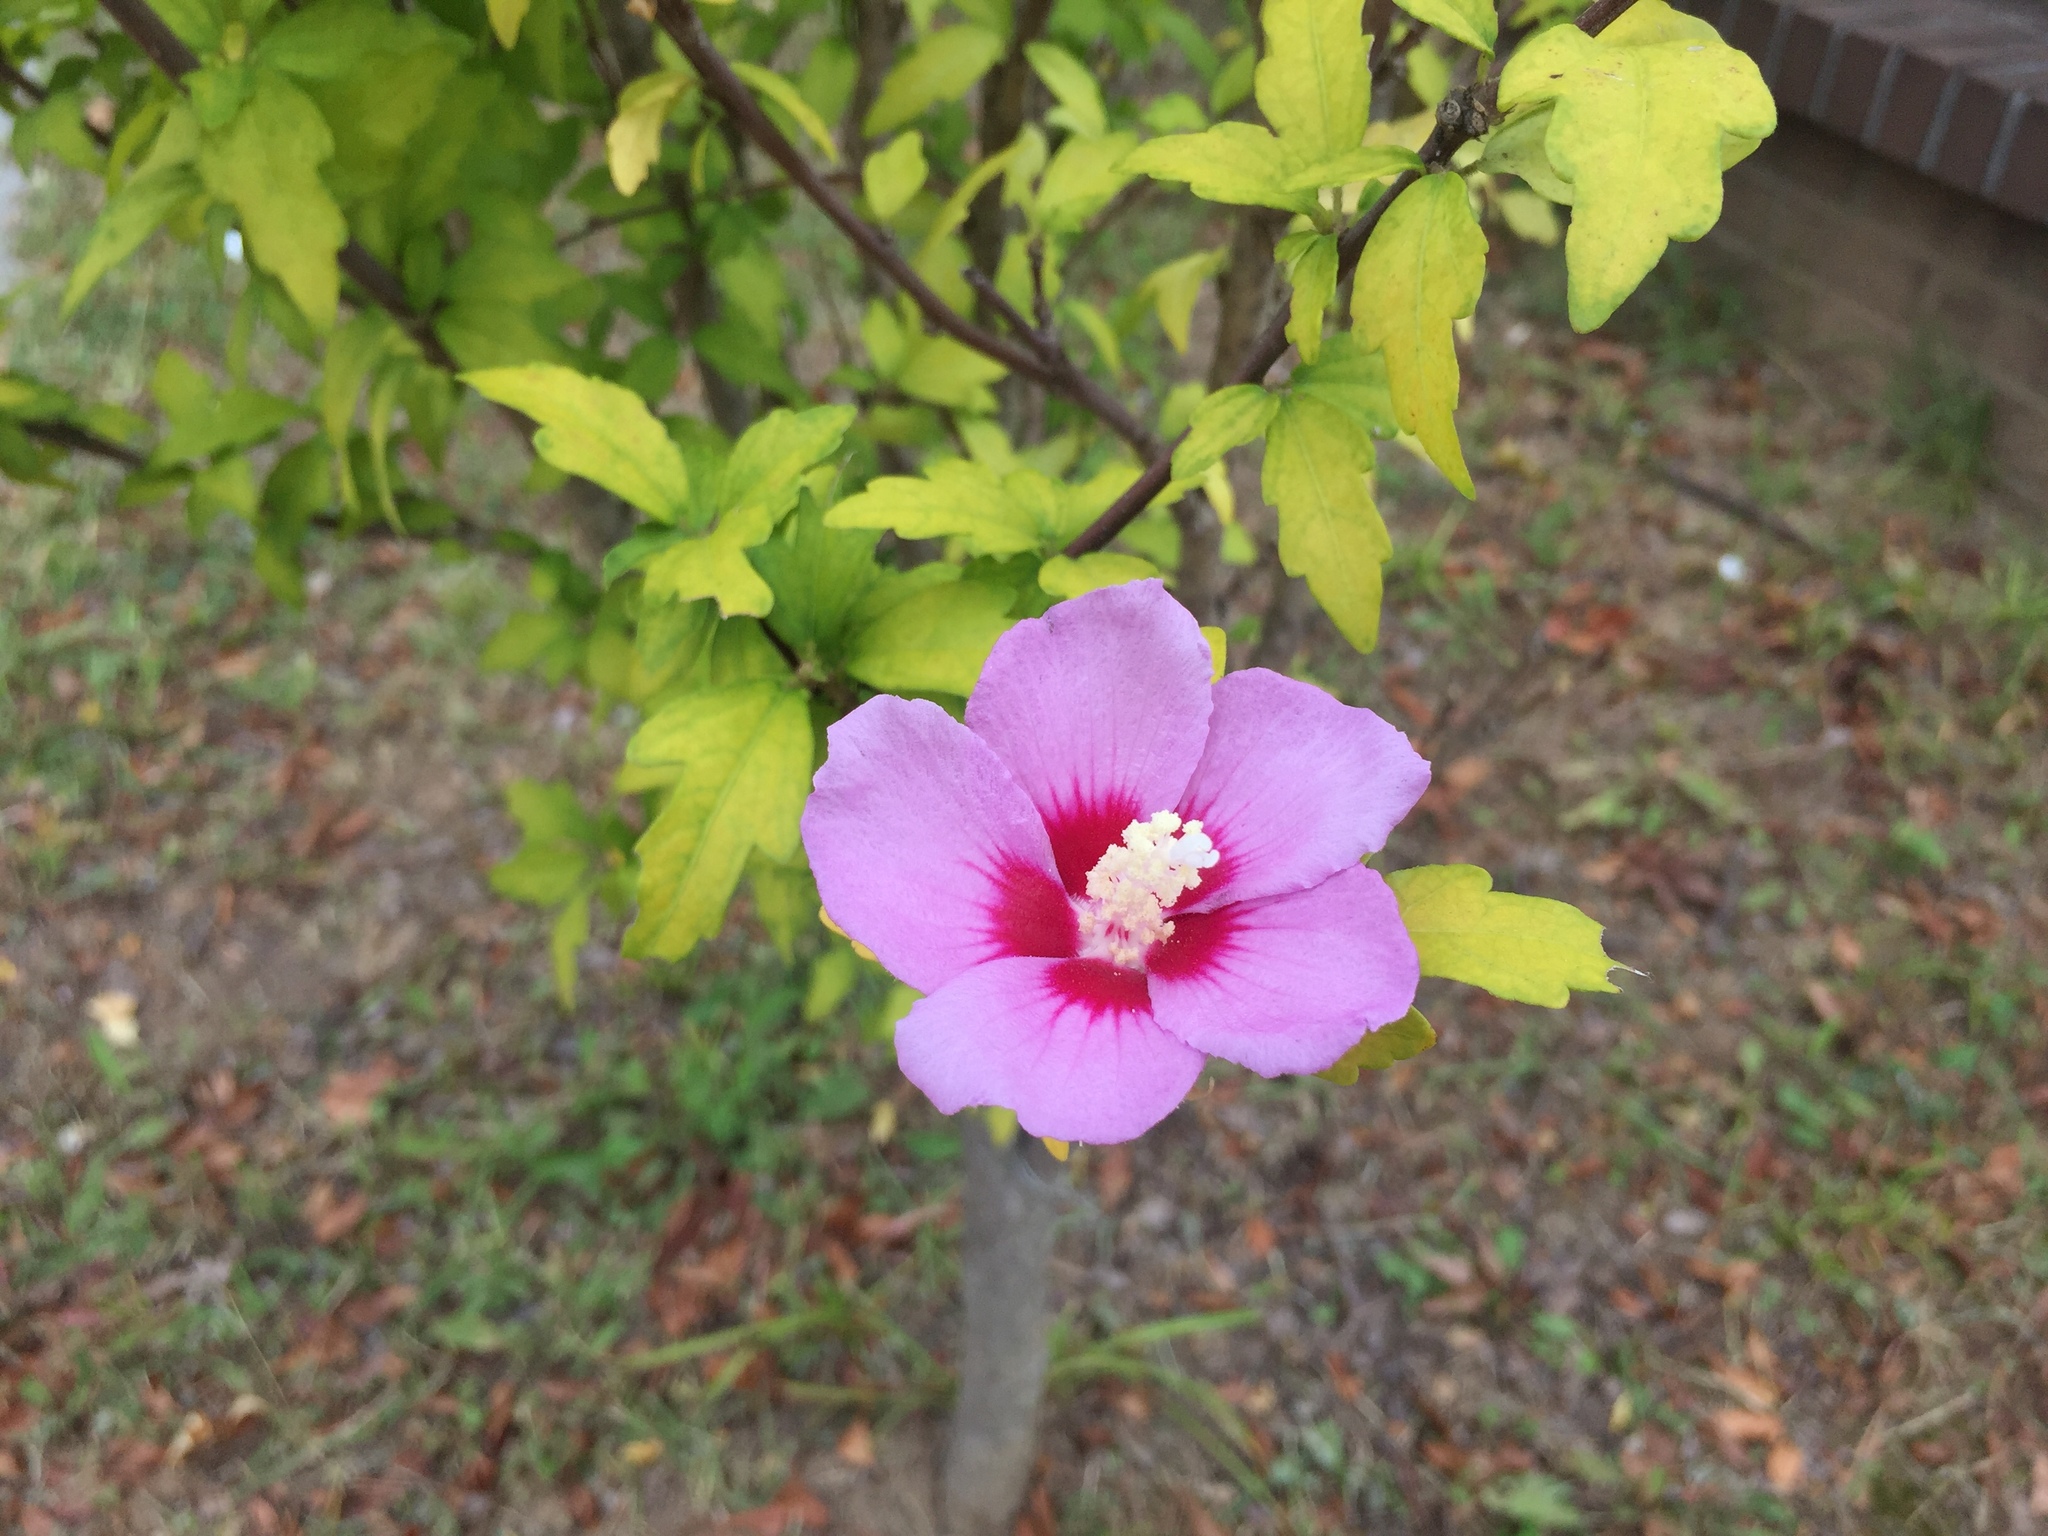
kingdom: Plantae
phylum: Tracheophyta
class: Magnoliopsida
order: Malvales
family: Malvaceae
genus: Hibiscus
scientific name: Hibiscus syriacus
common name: Syrian ketmia
